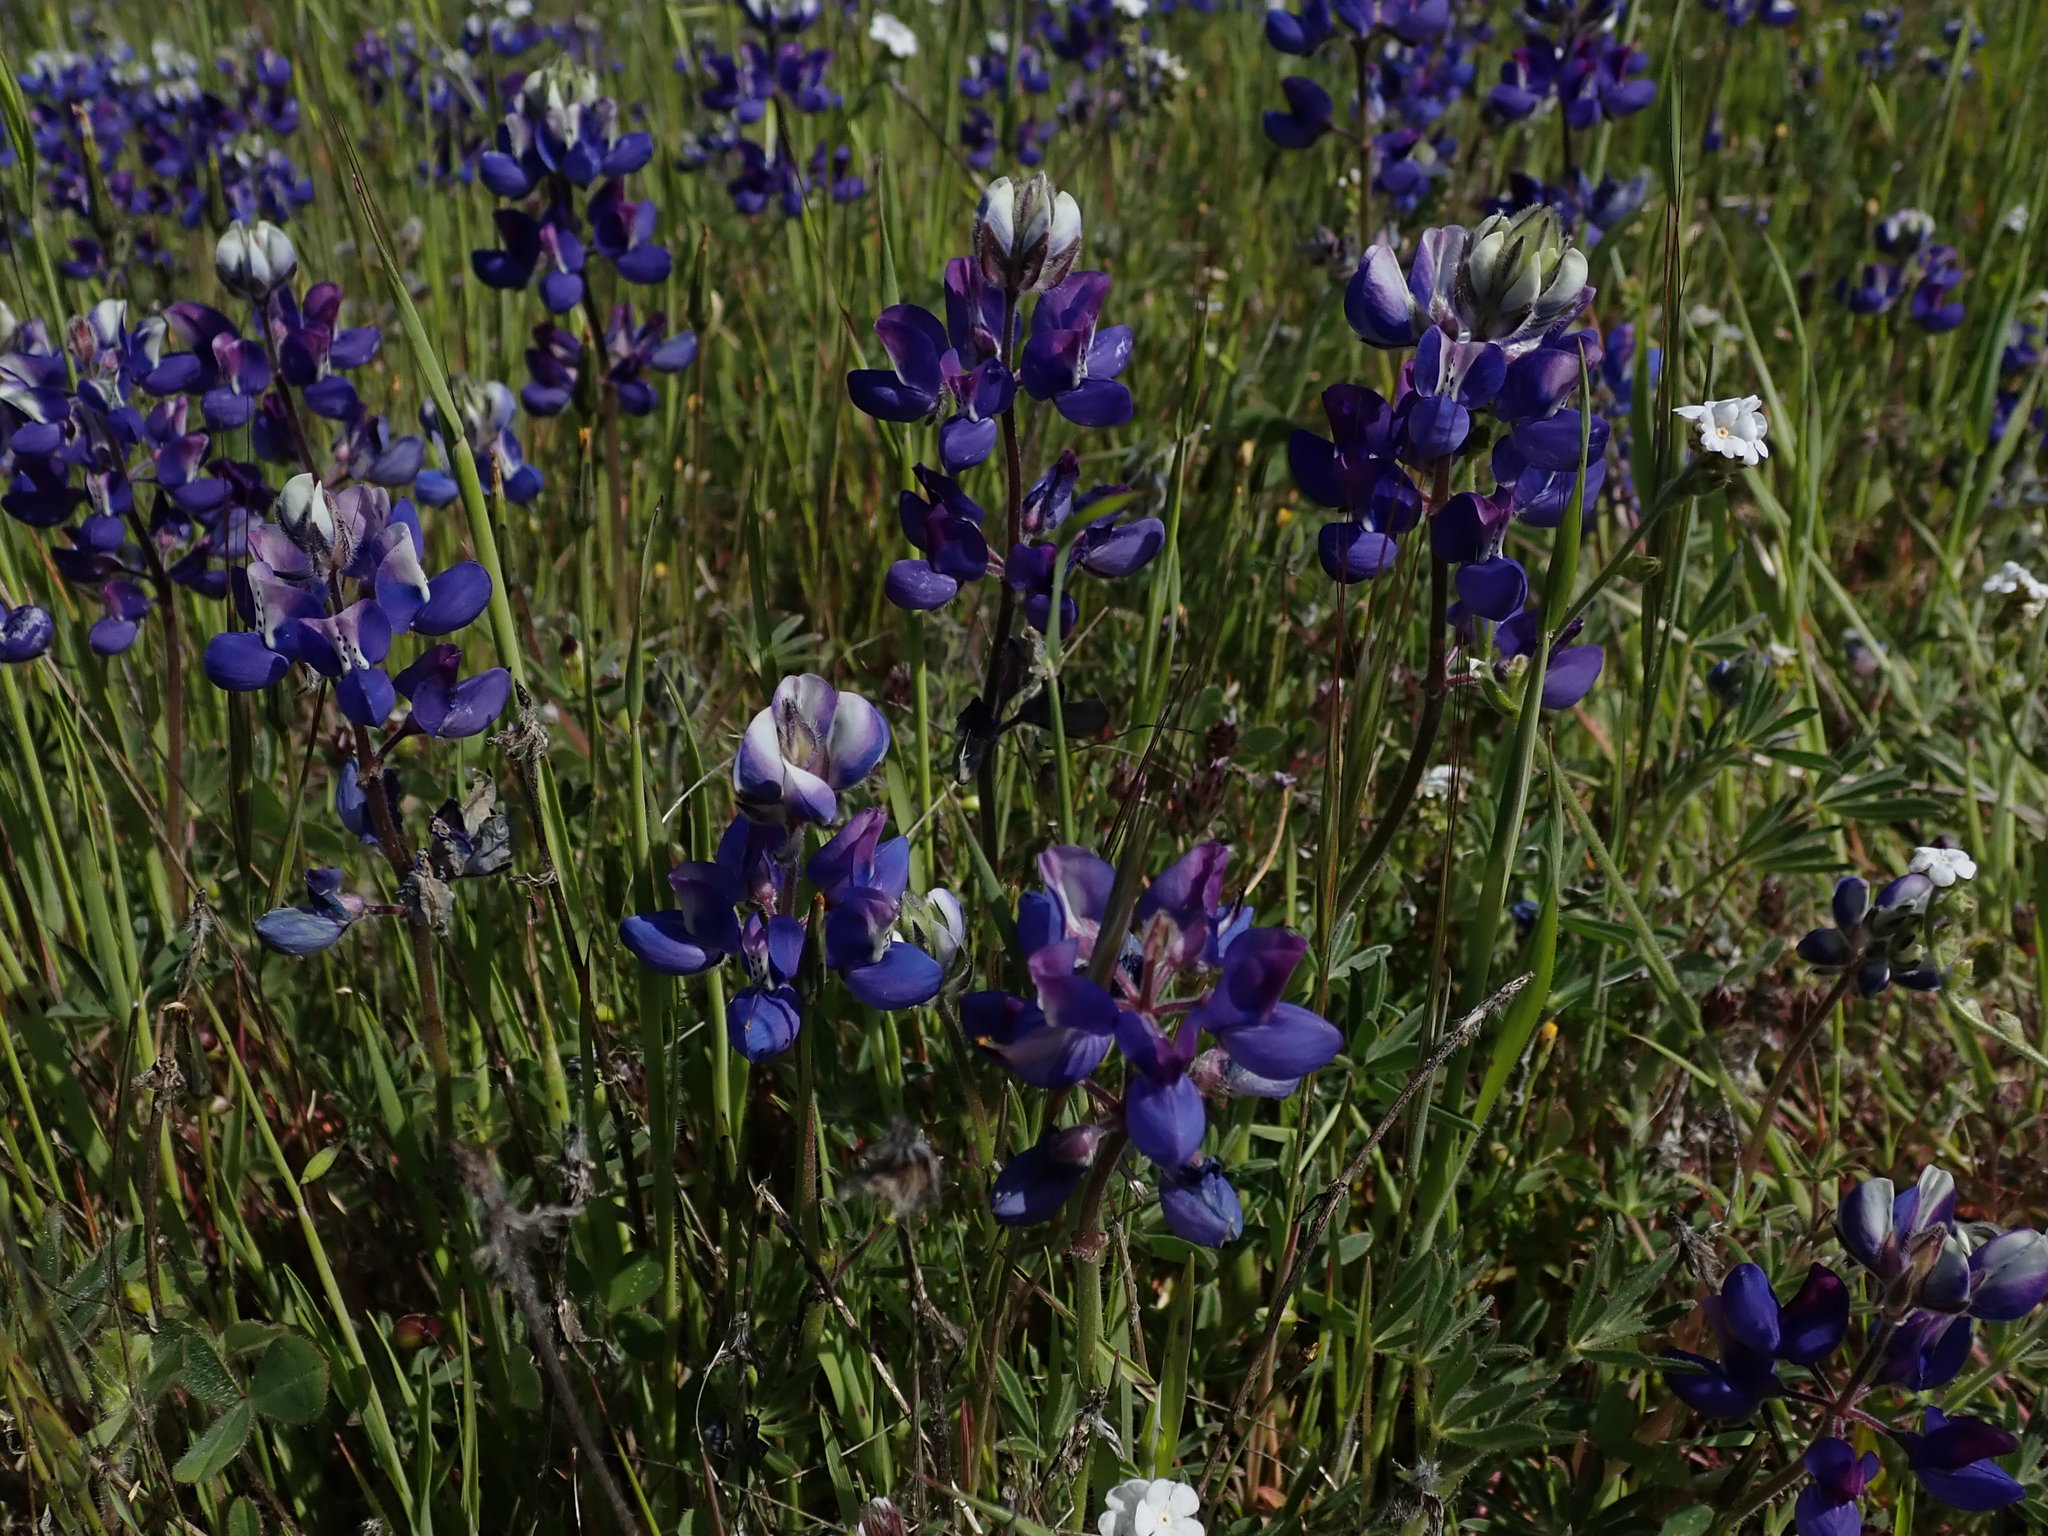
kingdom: Plantae
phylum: Tracheophyta
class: Magnoliopsida
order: Fabales
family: Fabaceae
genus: Lupinus
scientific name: Lupinus nanus
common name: Orean blue lupin
